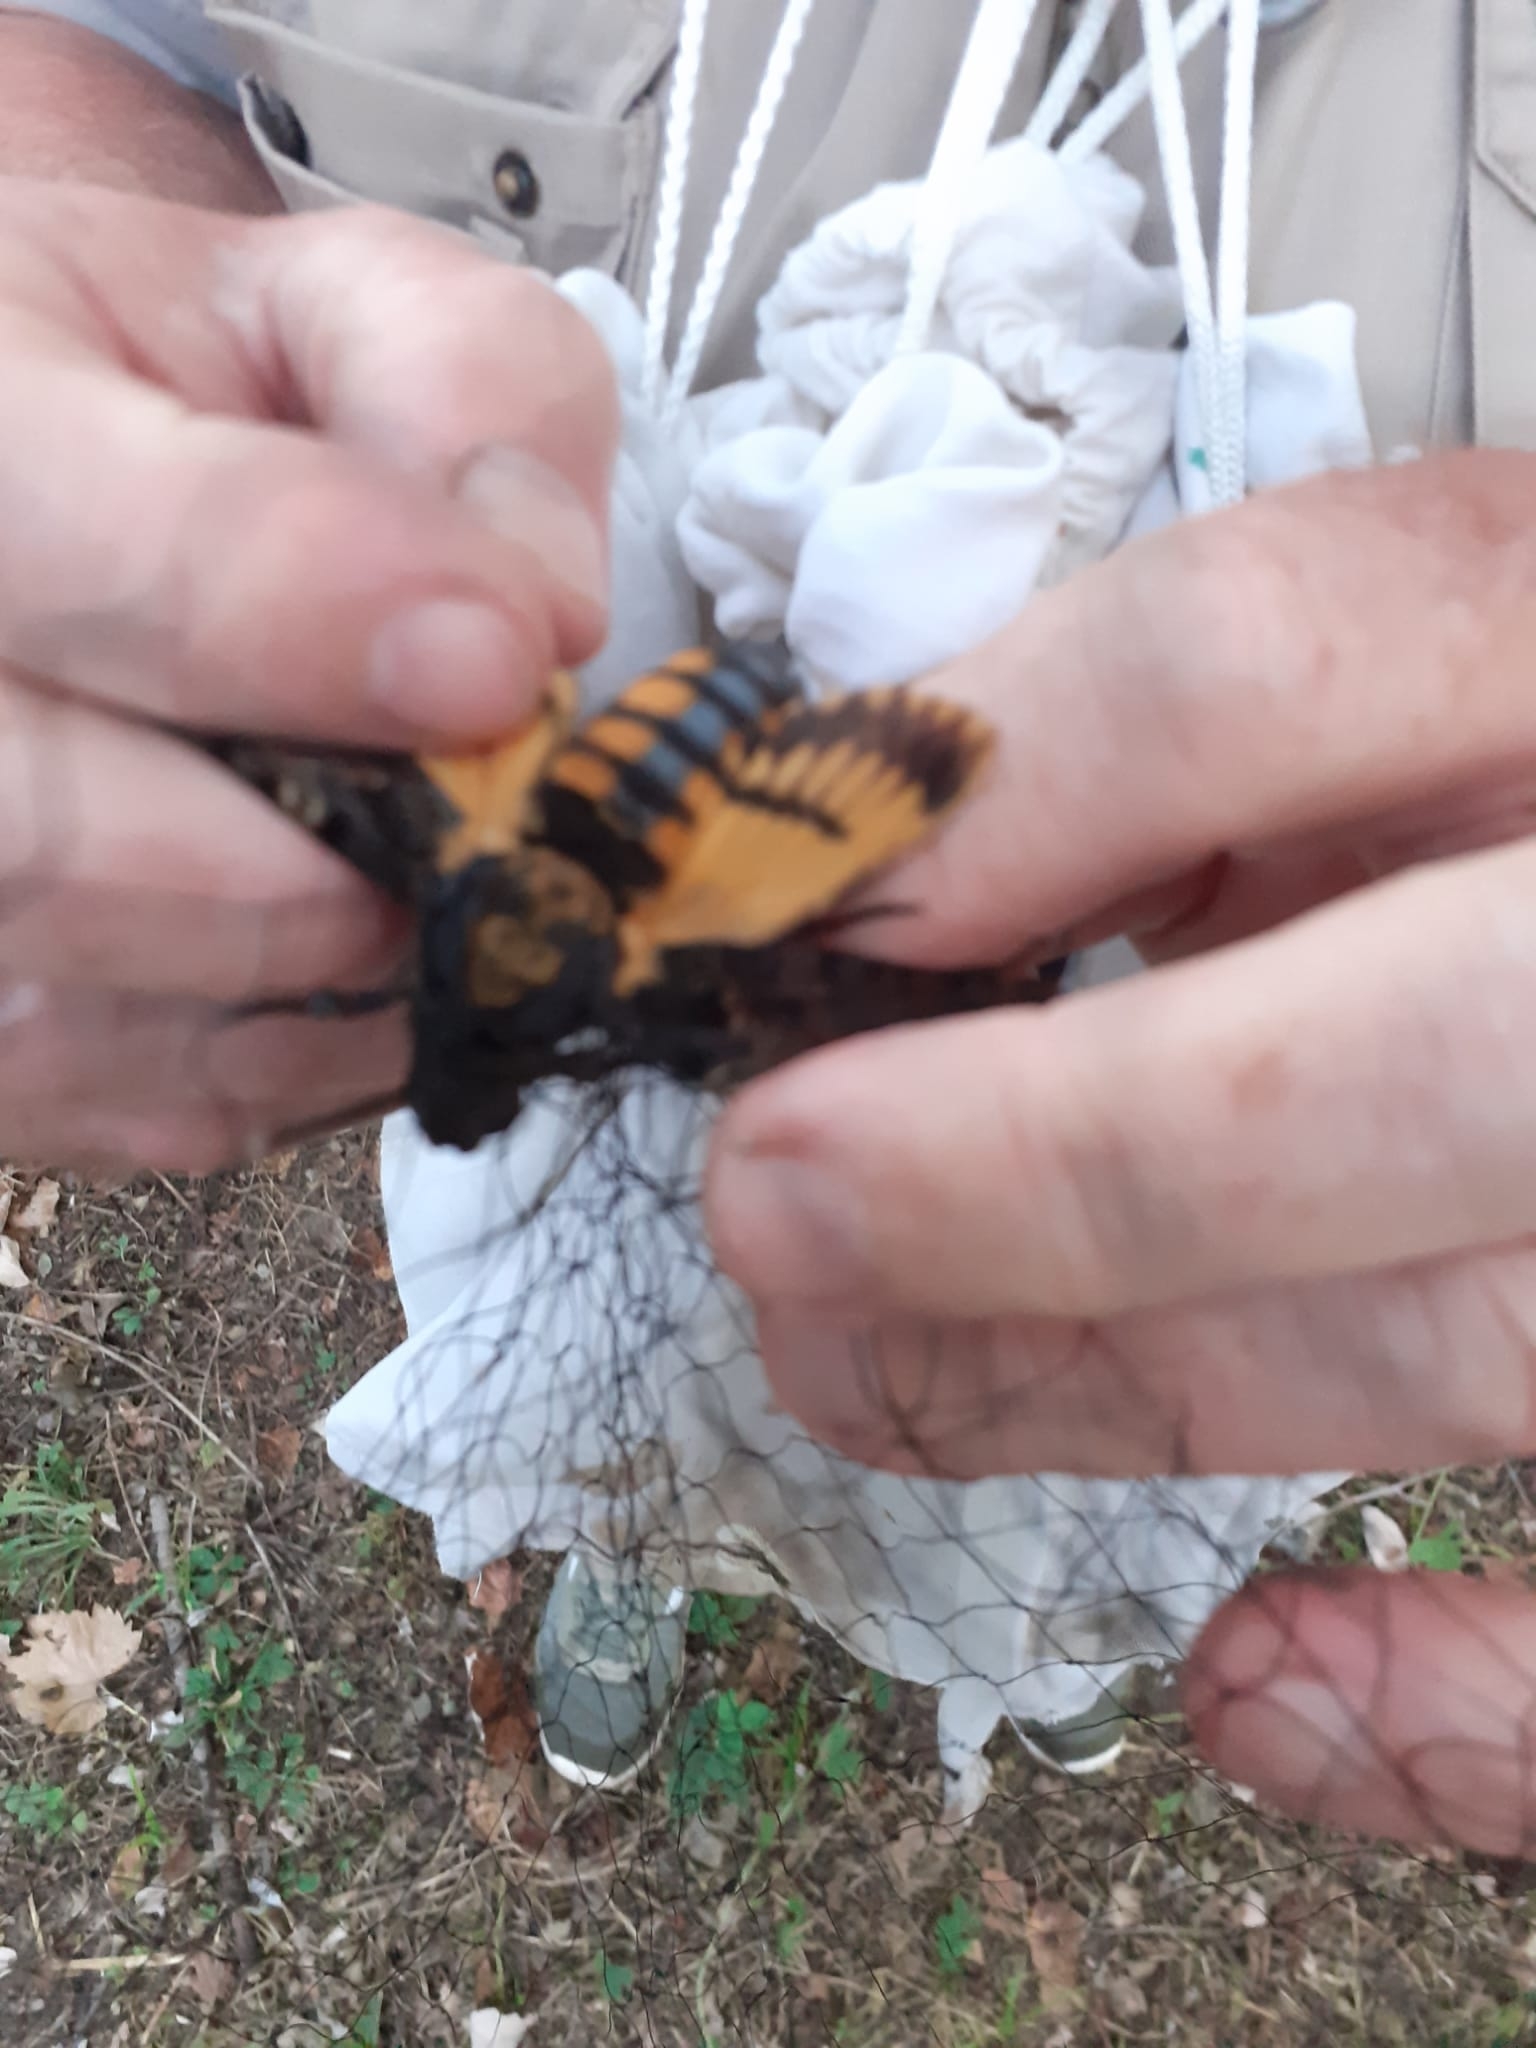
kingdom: Animalia
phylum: Arthropoda
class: Insecta
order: Lepidoptera
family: Sphingidae
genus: Acherontia
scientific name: Acherontia atropos
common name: Death's-head hawk moth
